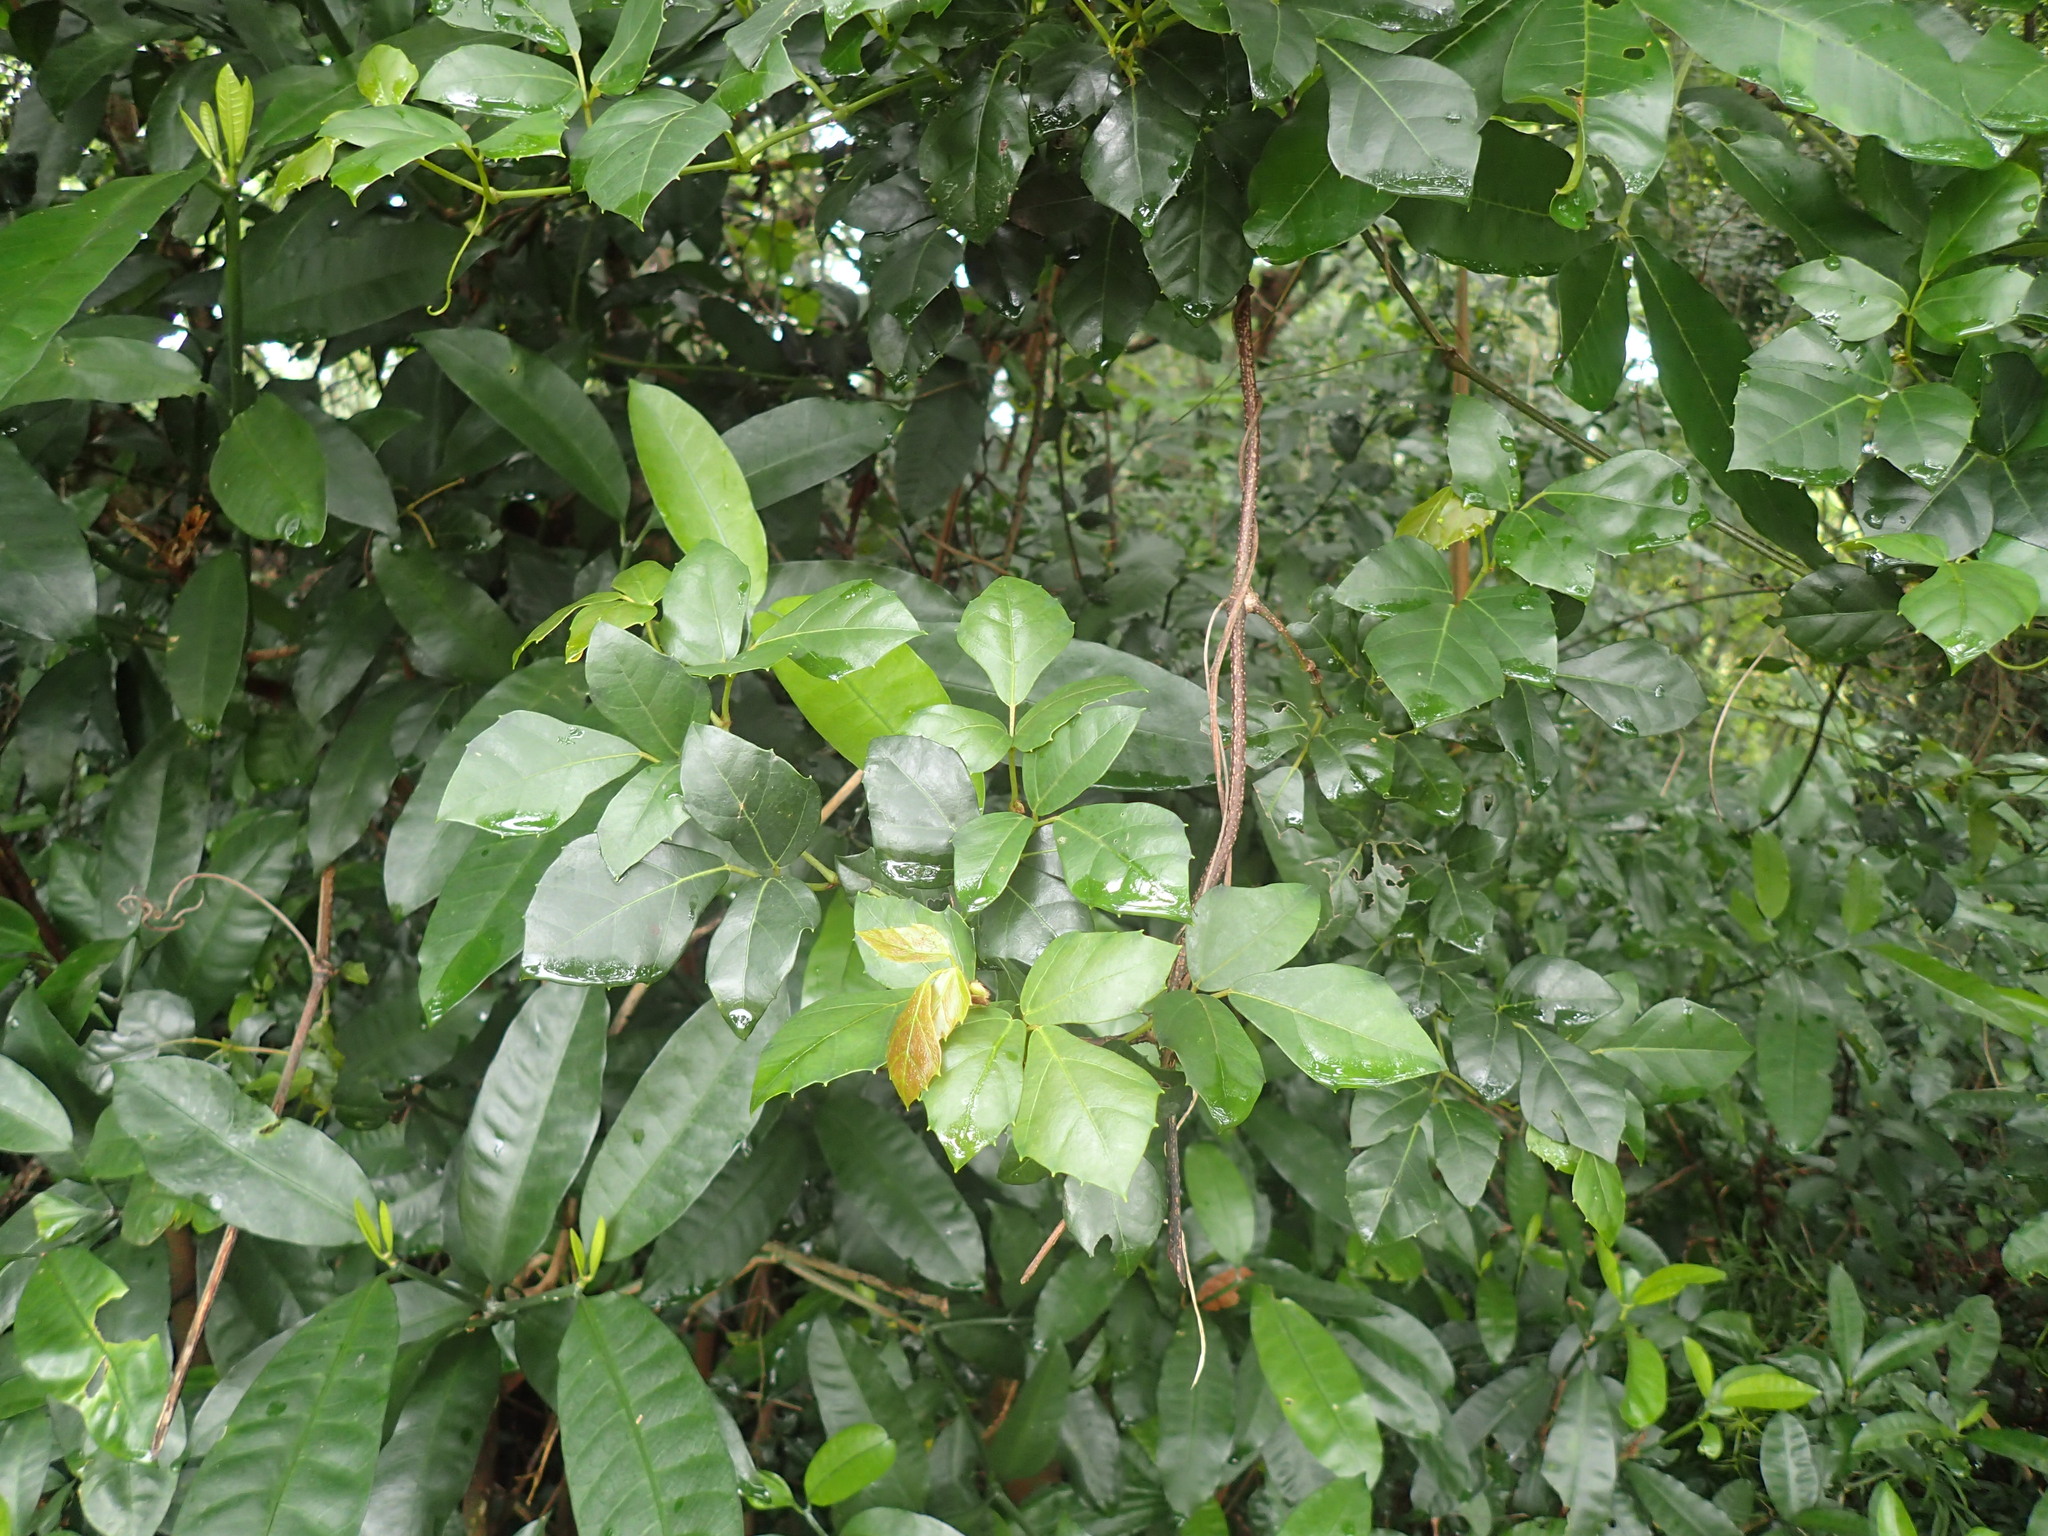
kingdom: Plantae
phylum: Tracheophyta
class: Magnoliopsida
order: Vitales
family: Vitaceae
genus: Rhoicissus
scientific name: Rhoicissus rhomboidea
